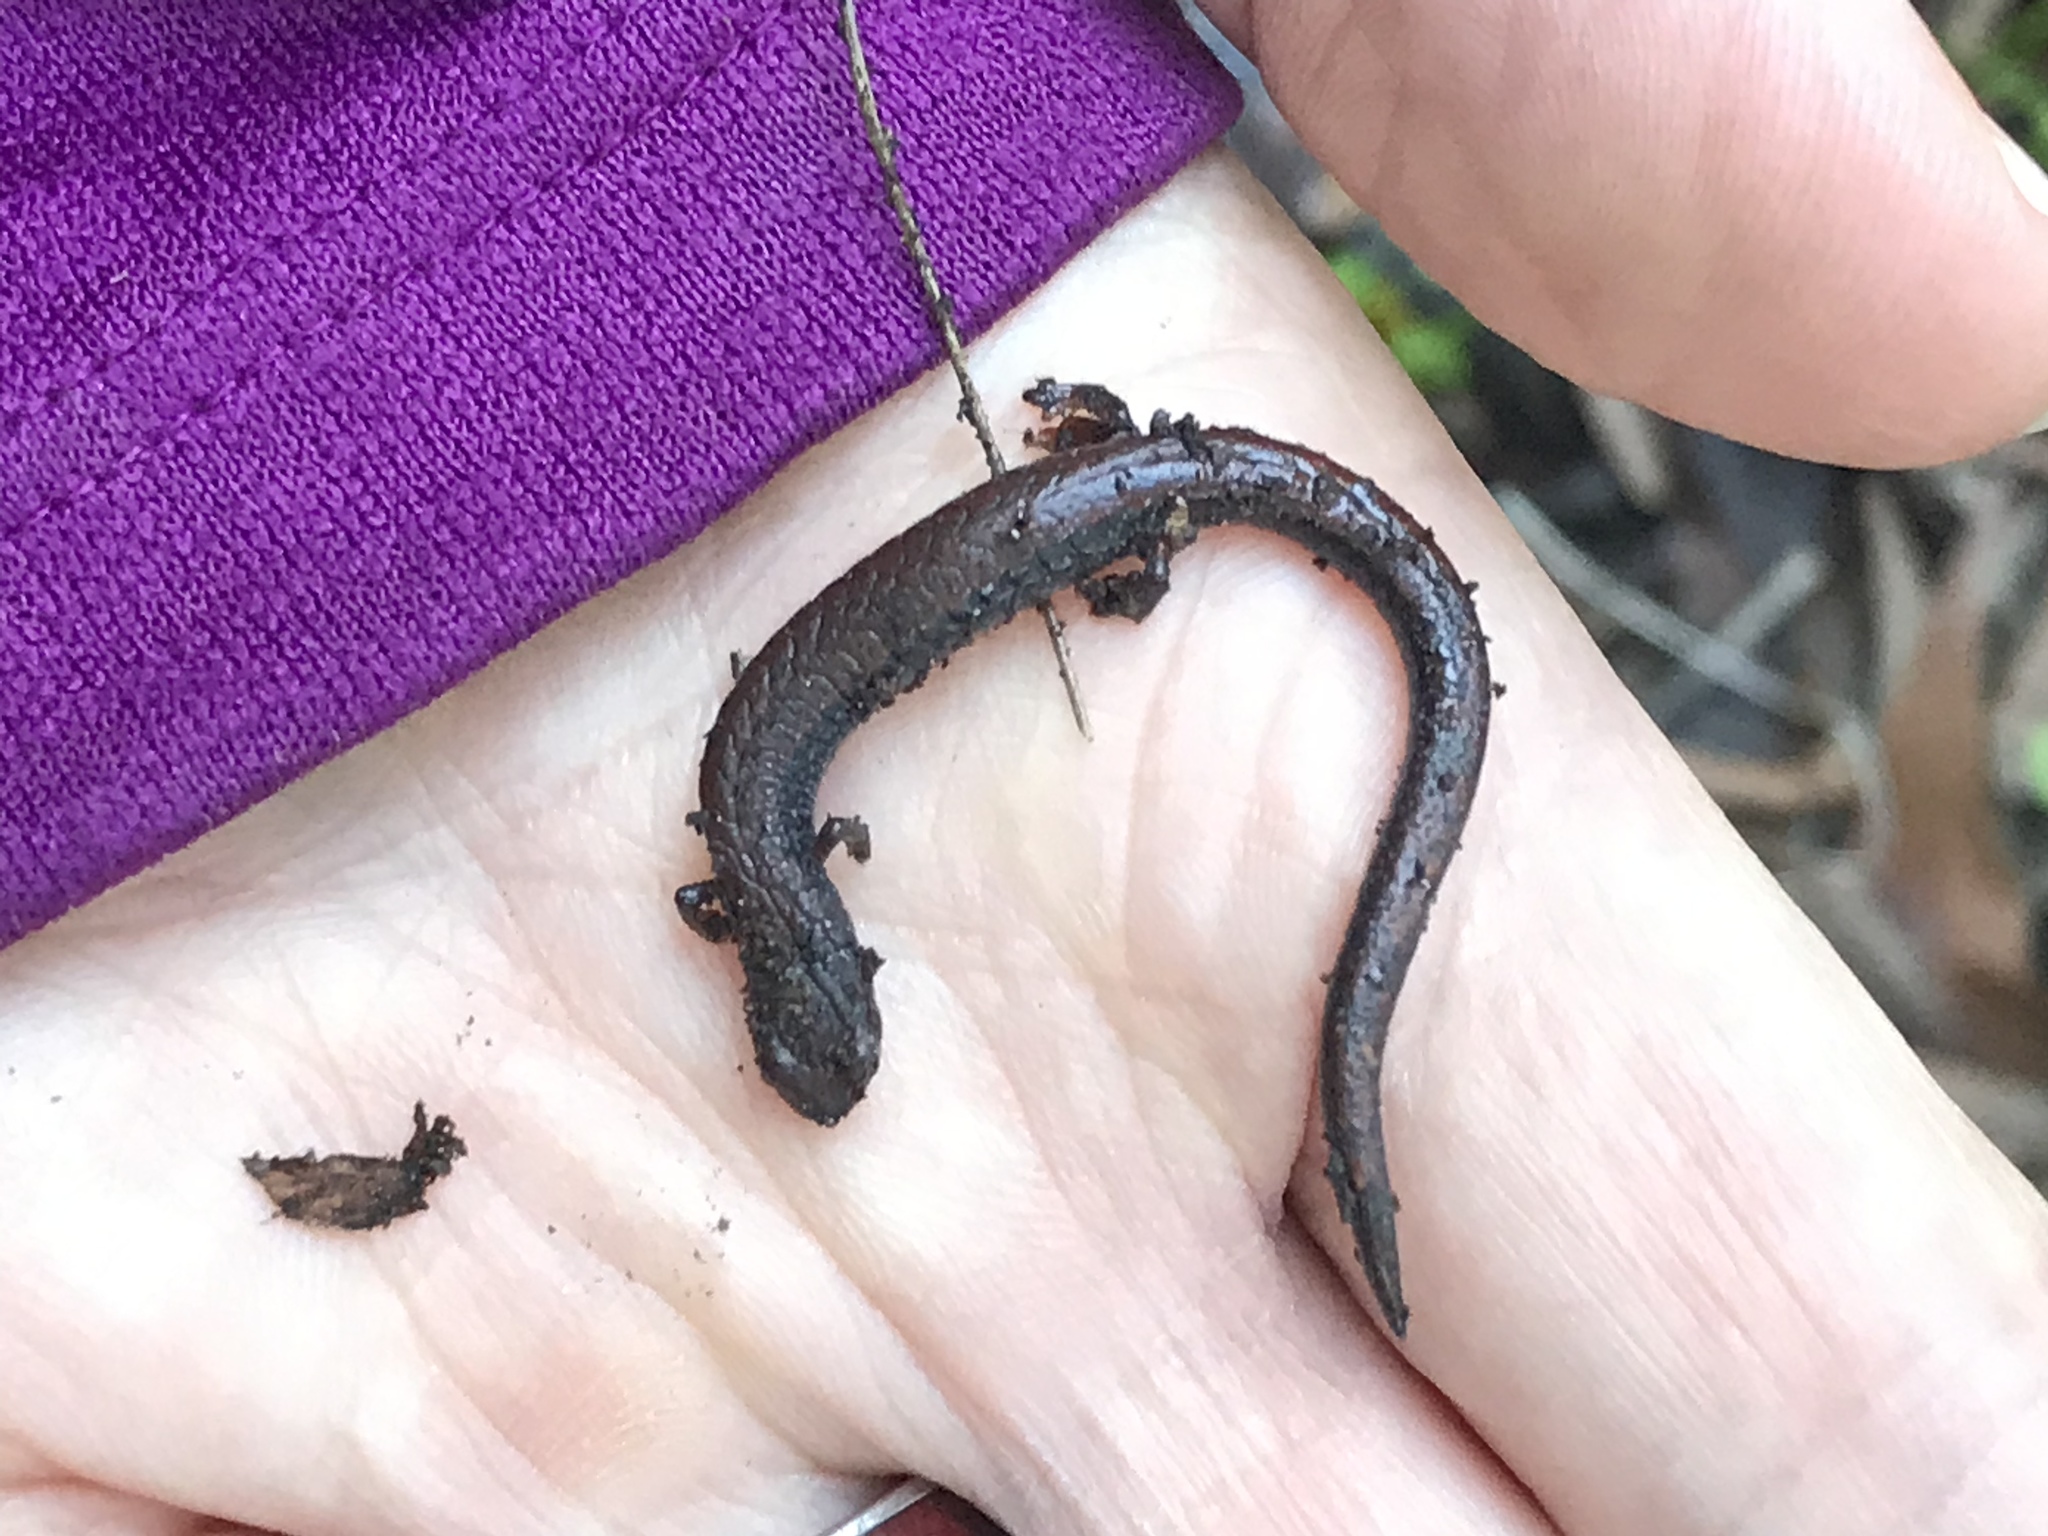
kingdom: Animalia
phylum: Chordata
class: Amphibia
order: Caudata
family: Plethodontidae
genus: Batrachoseps
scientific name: Batrachoseps attenuatus
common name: California slender salamander
